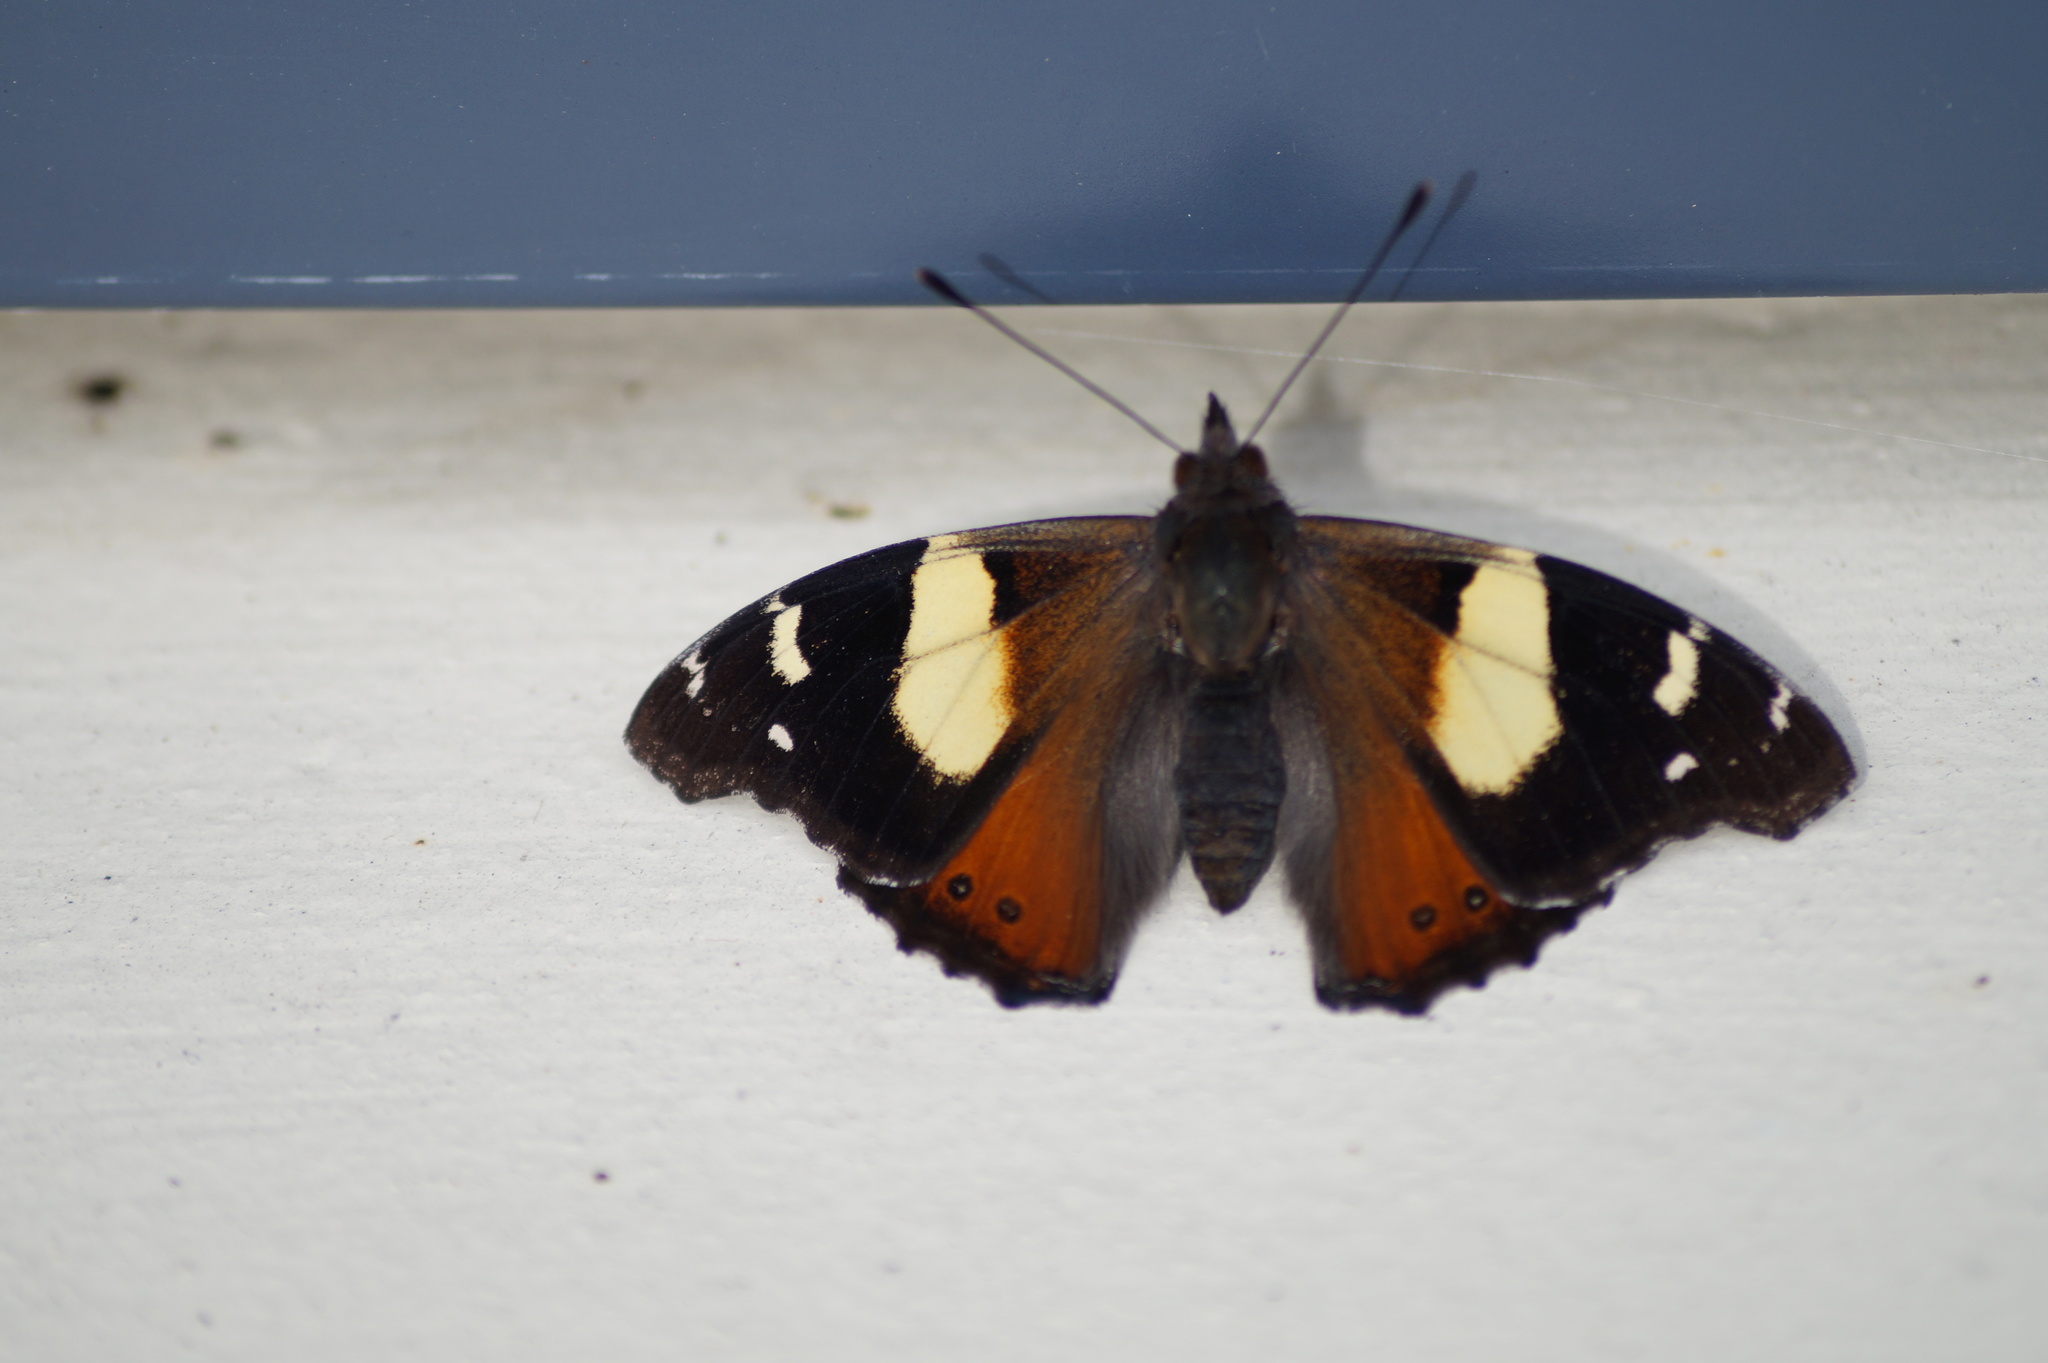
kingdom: Animalia
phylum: Arthropoda
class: Insecta
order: Lepidoptera
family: Nymphalidae
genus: Vanessa
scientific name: Vanessa itea
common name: Yellow admiral
